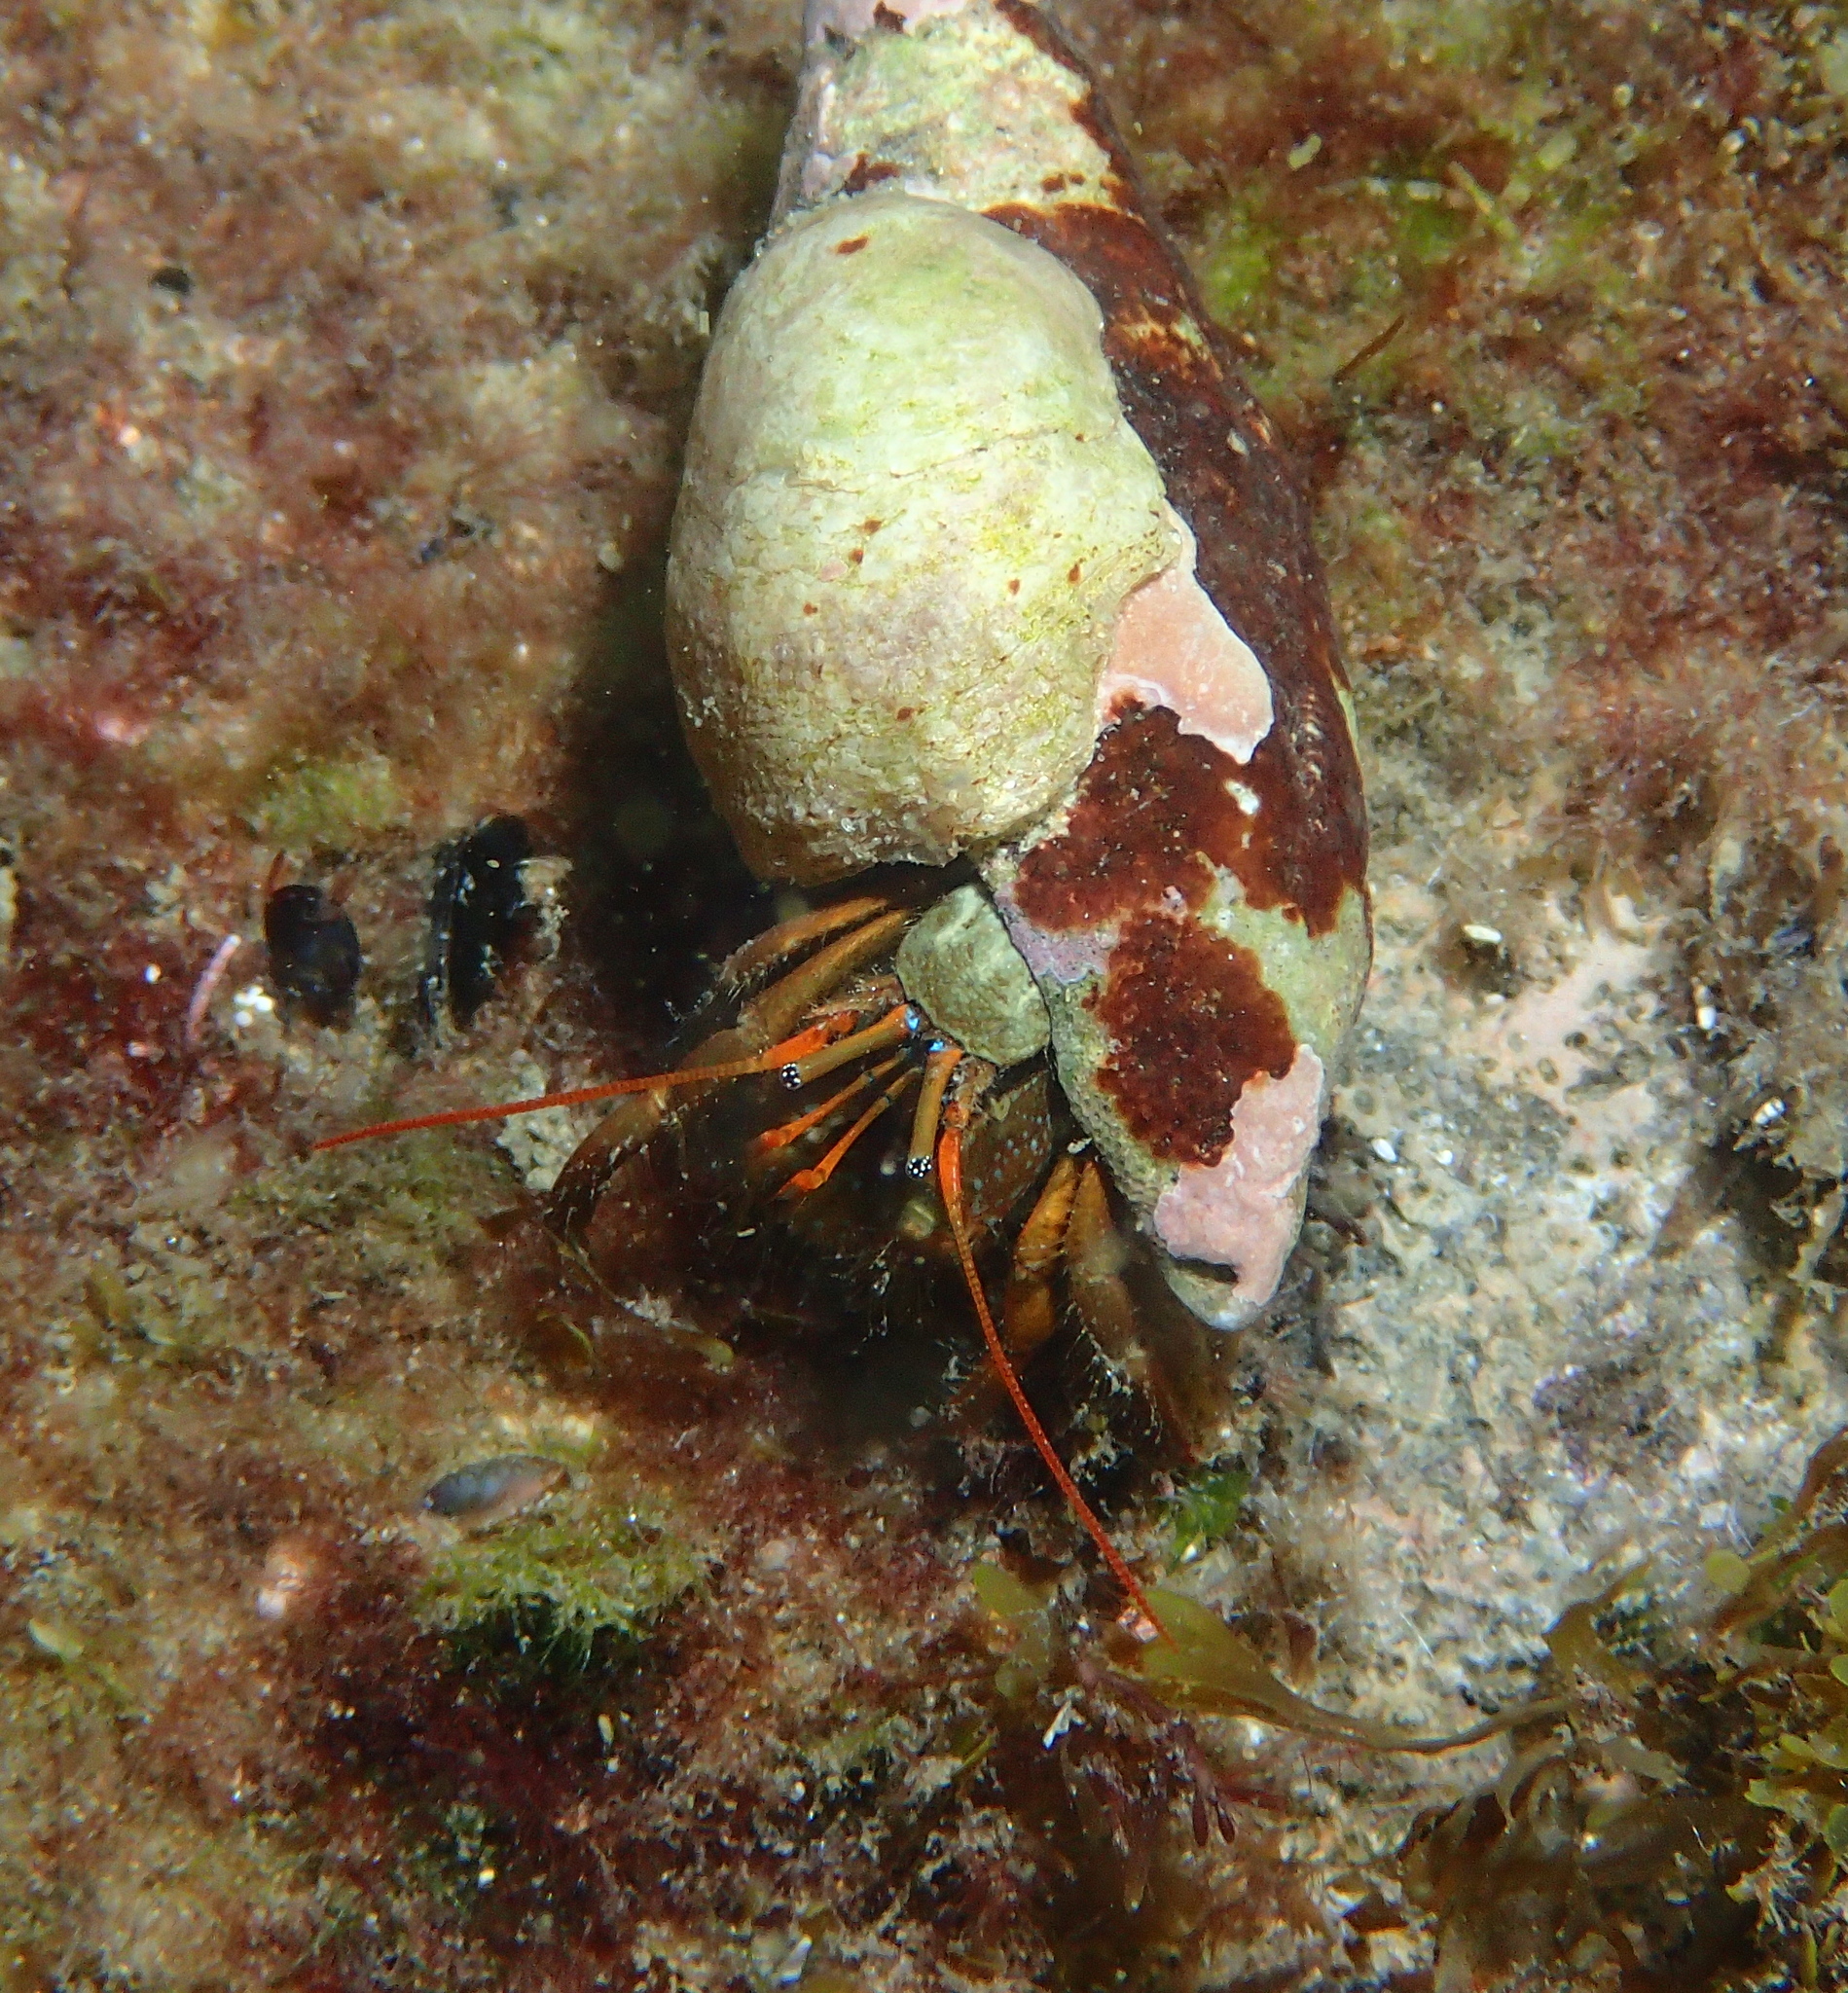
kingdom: Animalia
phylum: Arthropoda
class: Malacostraca
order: Decapoda
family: Diogenidae
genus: Clibanarius
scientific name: Clibanarius erythropus
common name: Hermit crab
